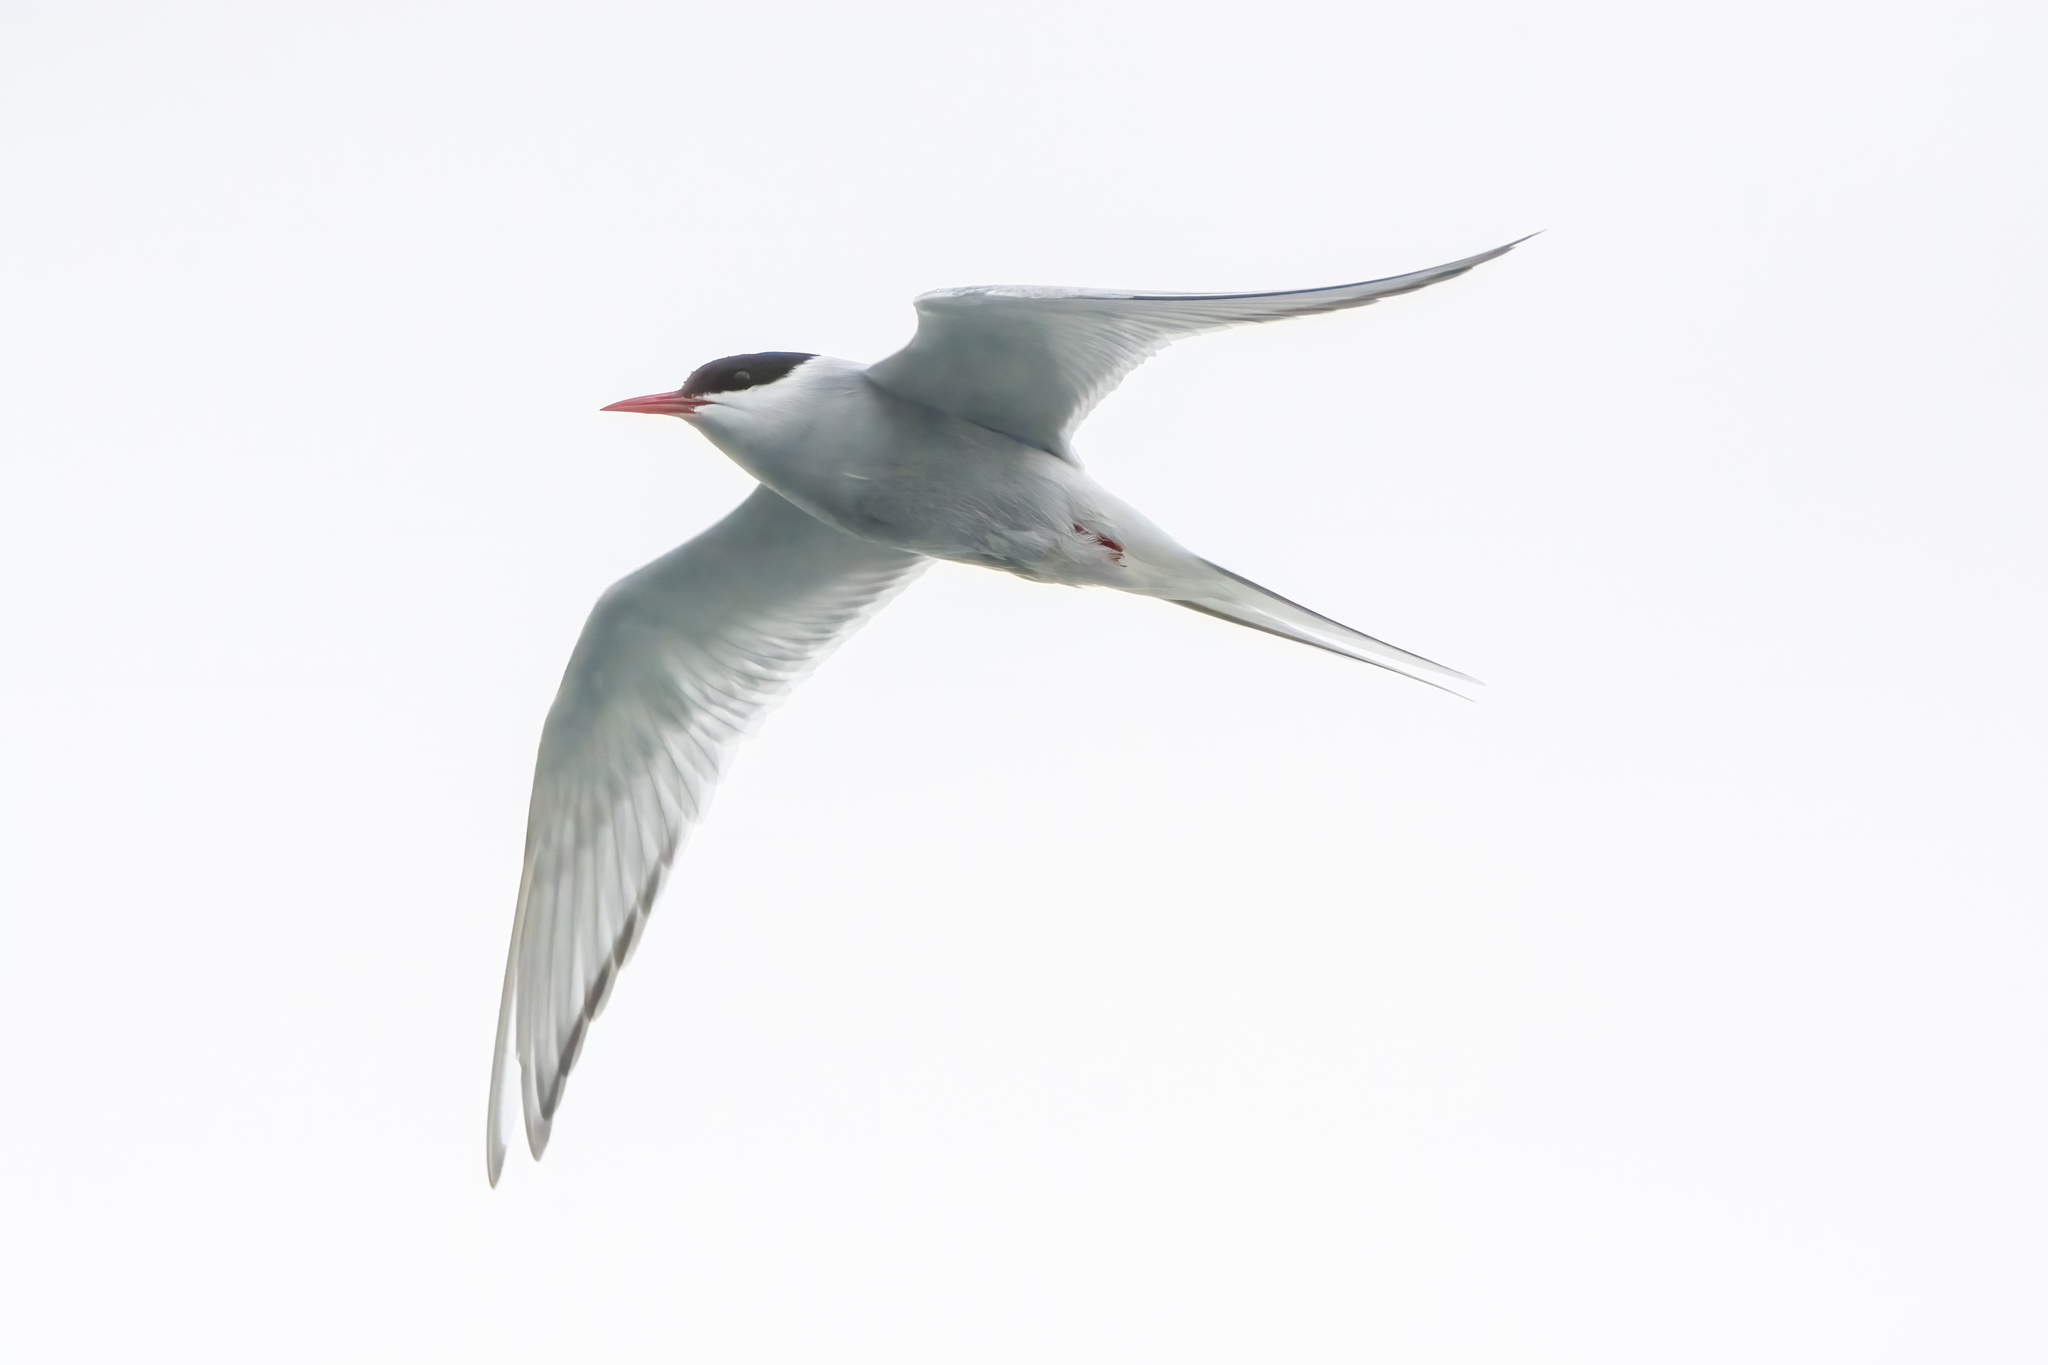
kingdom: Animalia
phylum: Chordata
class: Aves
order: Charadriiformes
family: Laridae
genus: Sterna
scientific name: Sterna paradisaea
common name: Arctic tern
